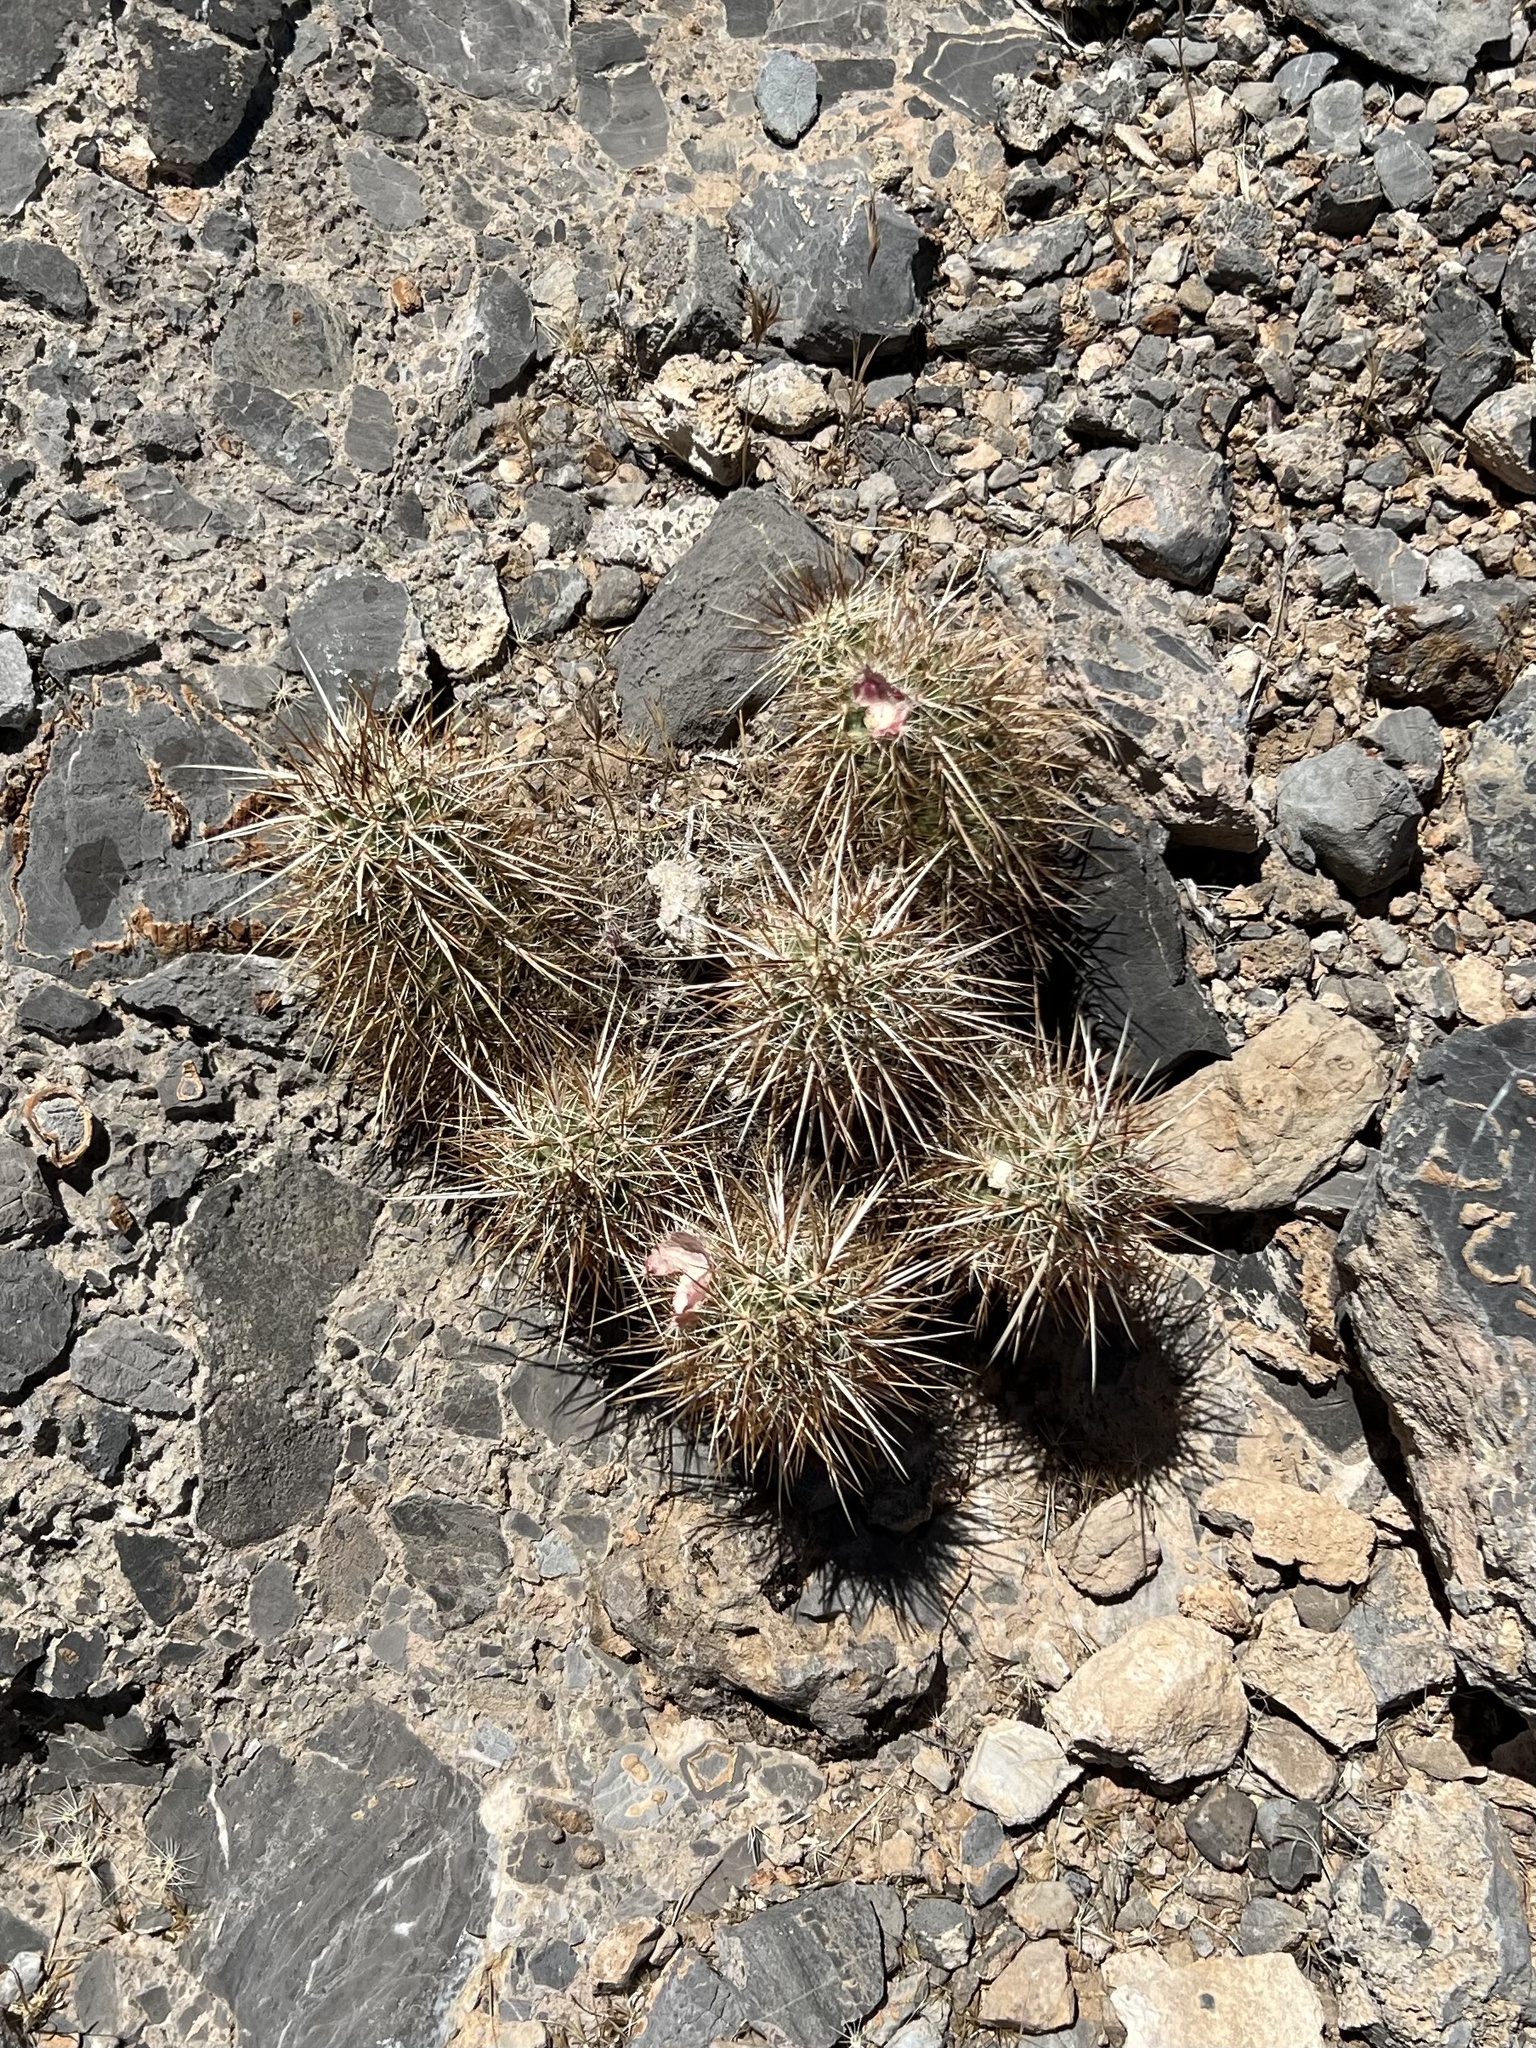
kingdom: Plantae
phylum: Tracheophyta
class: Magnoliopsida
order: Caryophyllales
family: Cactaceae
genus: Echinocereus
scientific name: Echinocereus engelmannii
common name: Engelmann's hedgehog cactus
